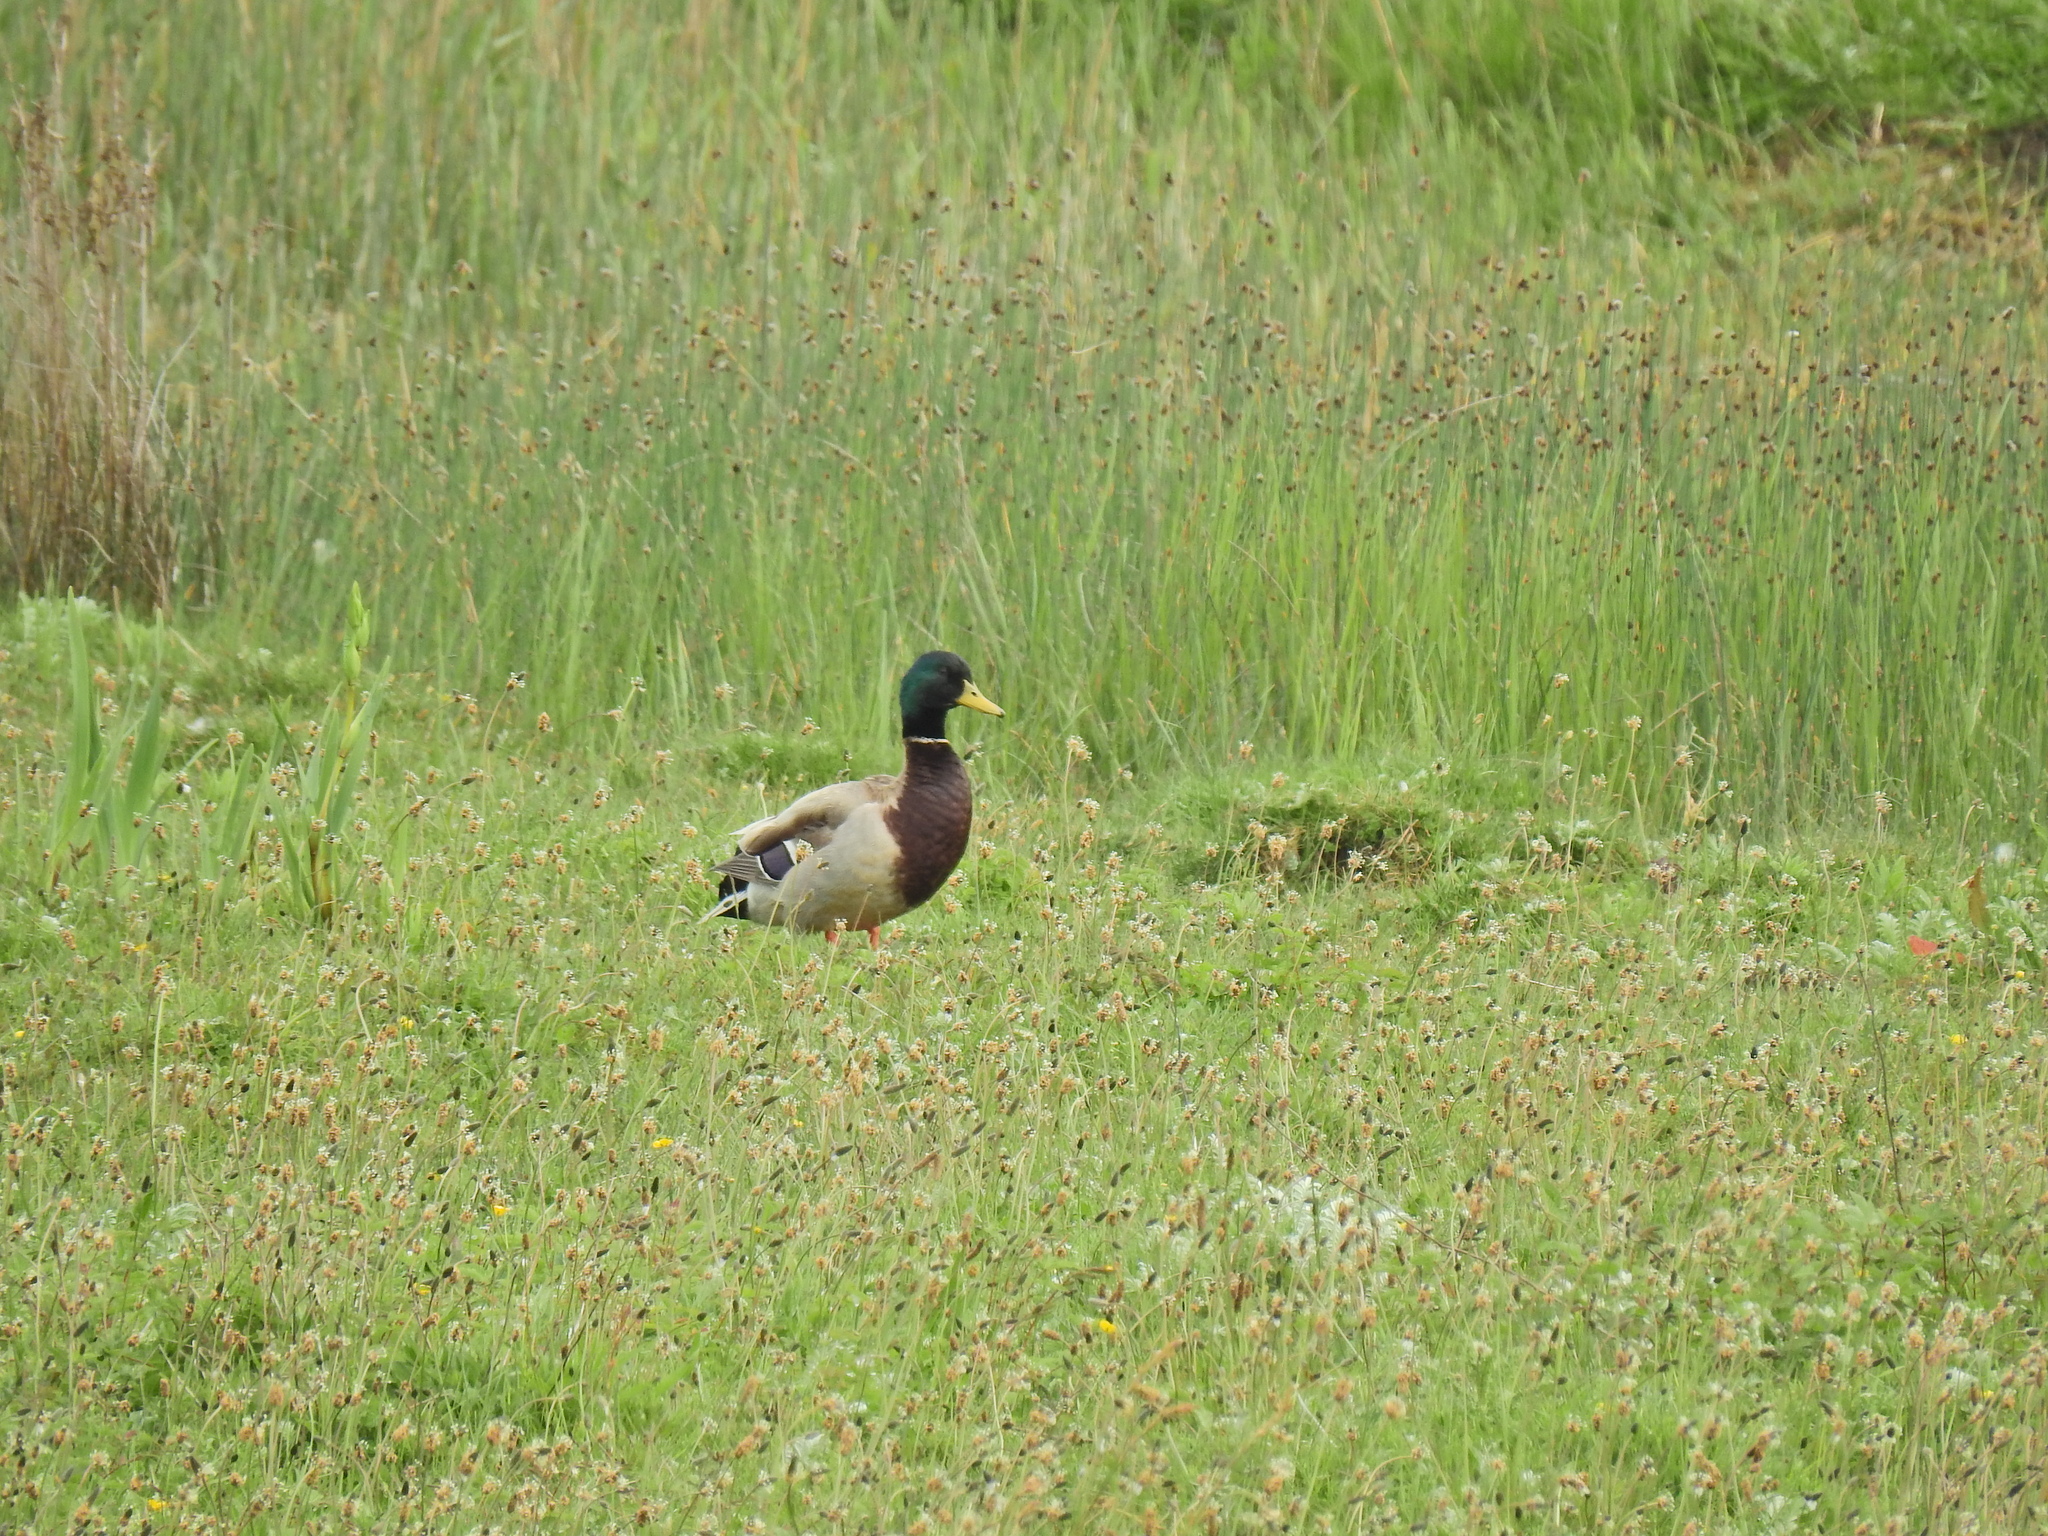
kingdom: Animalia
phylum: Chordata
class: Aves
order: Anseriformes
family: Anatidae
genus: Anas
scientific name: Anas platyrhynchos
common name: Mallard
